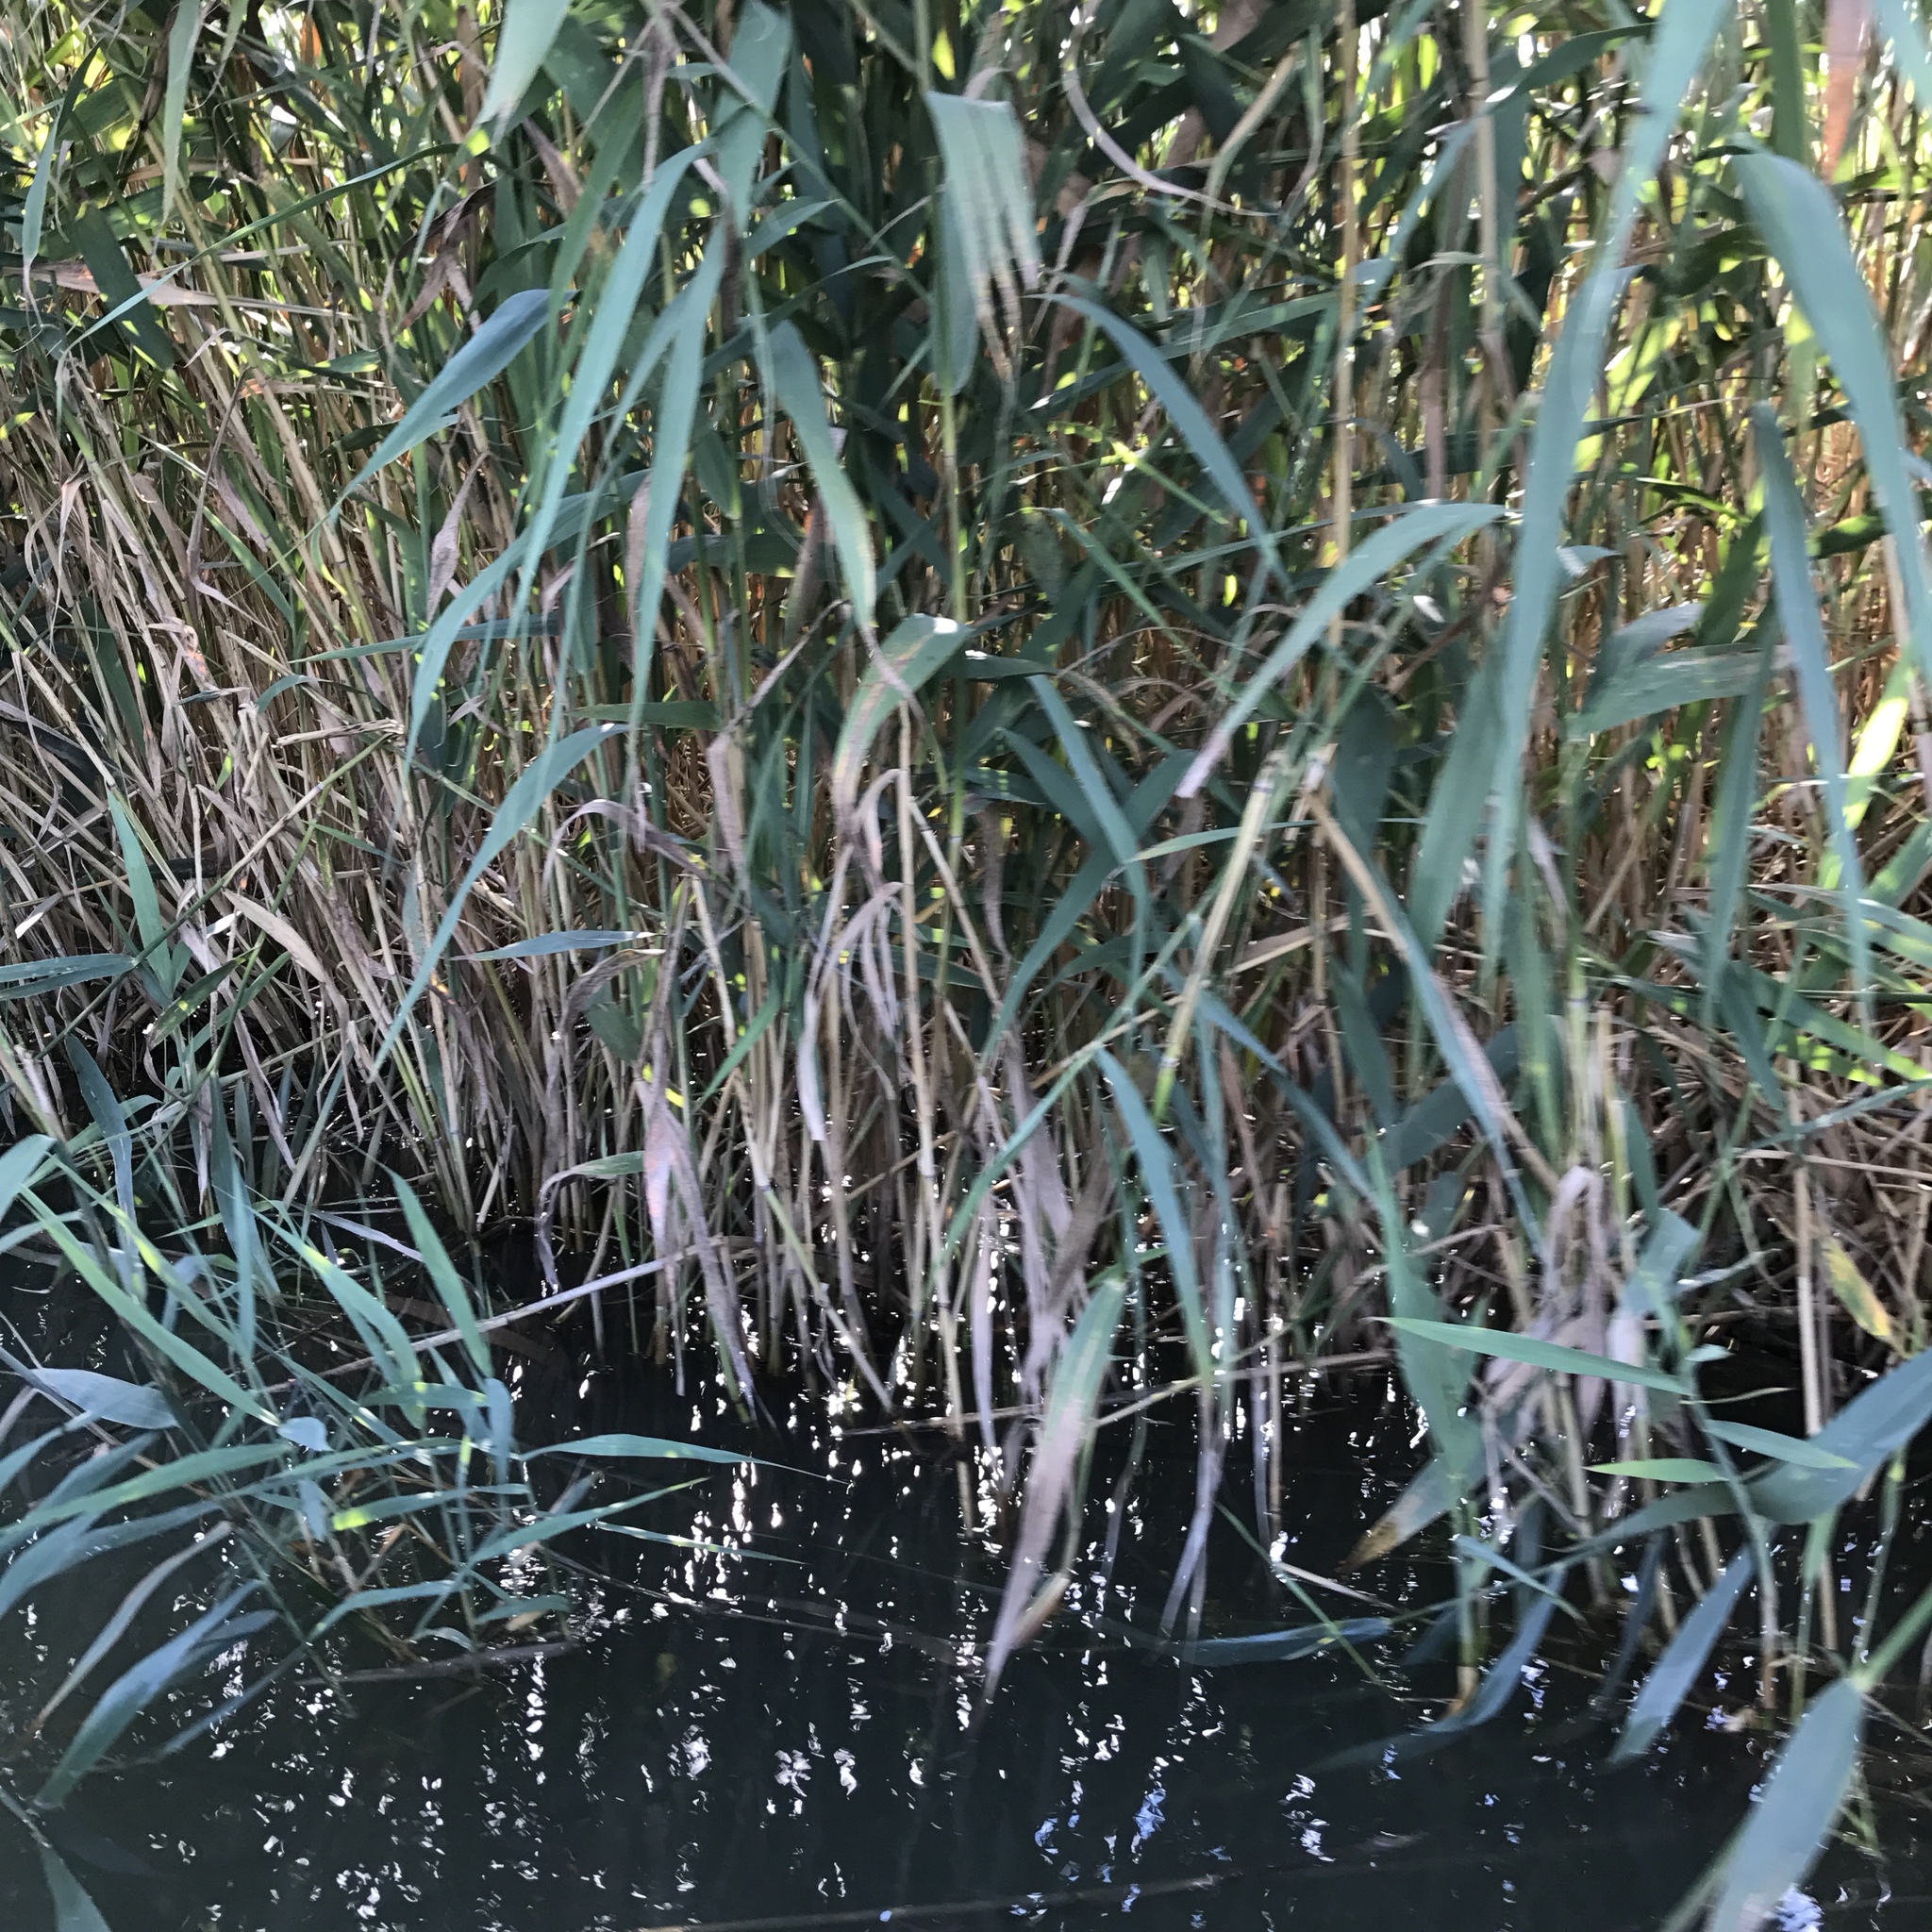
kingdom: Plantae
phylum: Tracheophyta
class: Liliopsida
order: Poales
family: Poaceae
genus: Phragmites
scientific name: Phragmites australis
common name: Common reed
